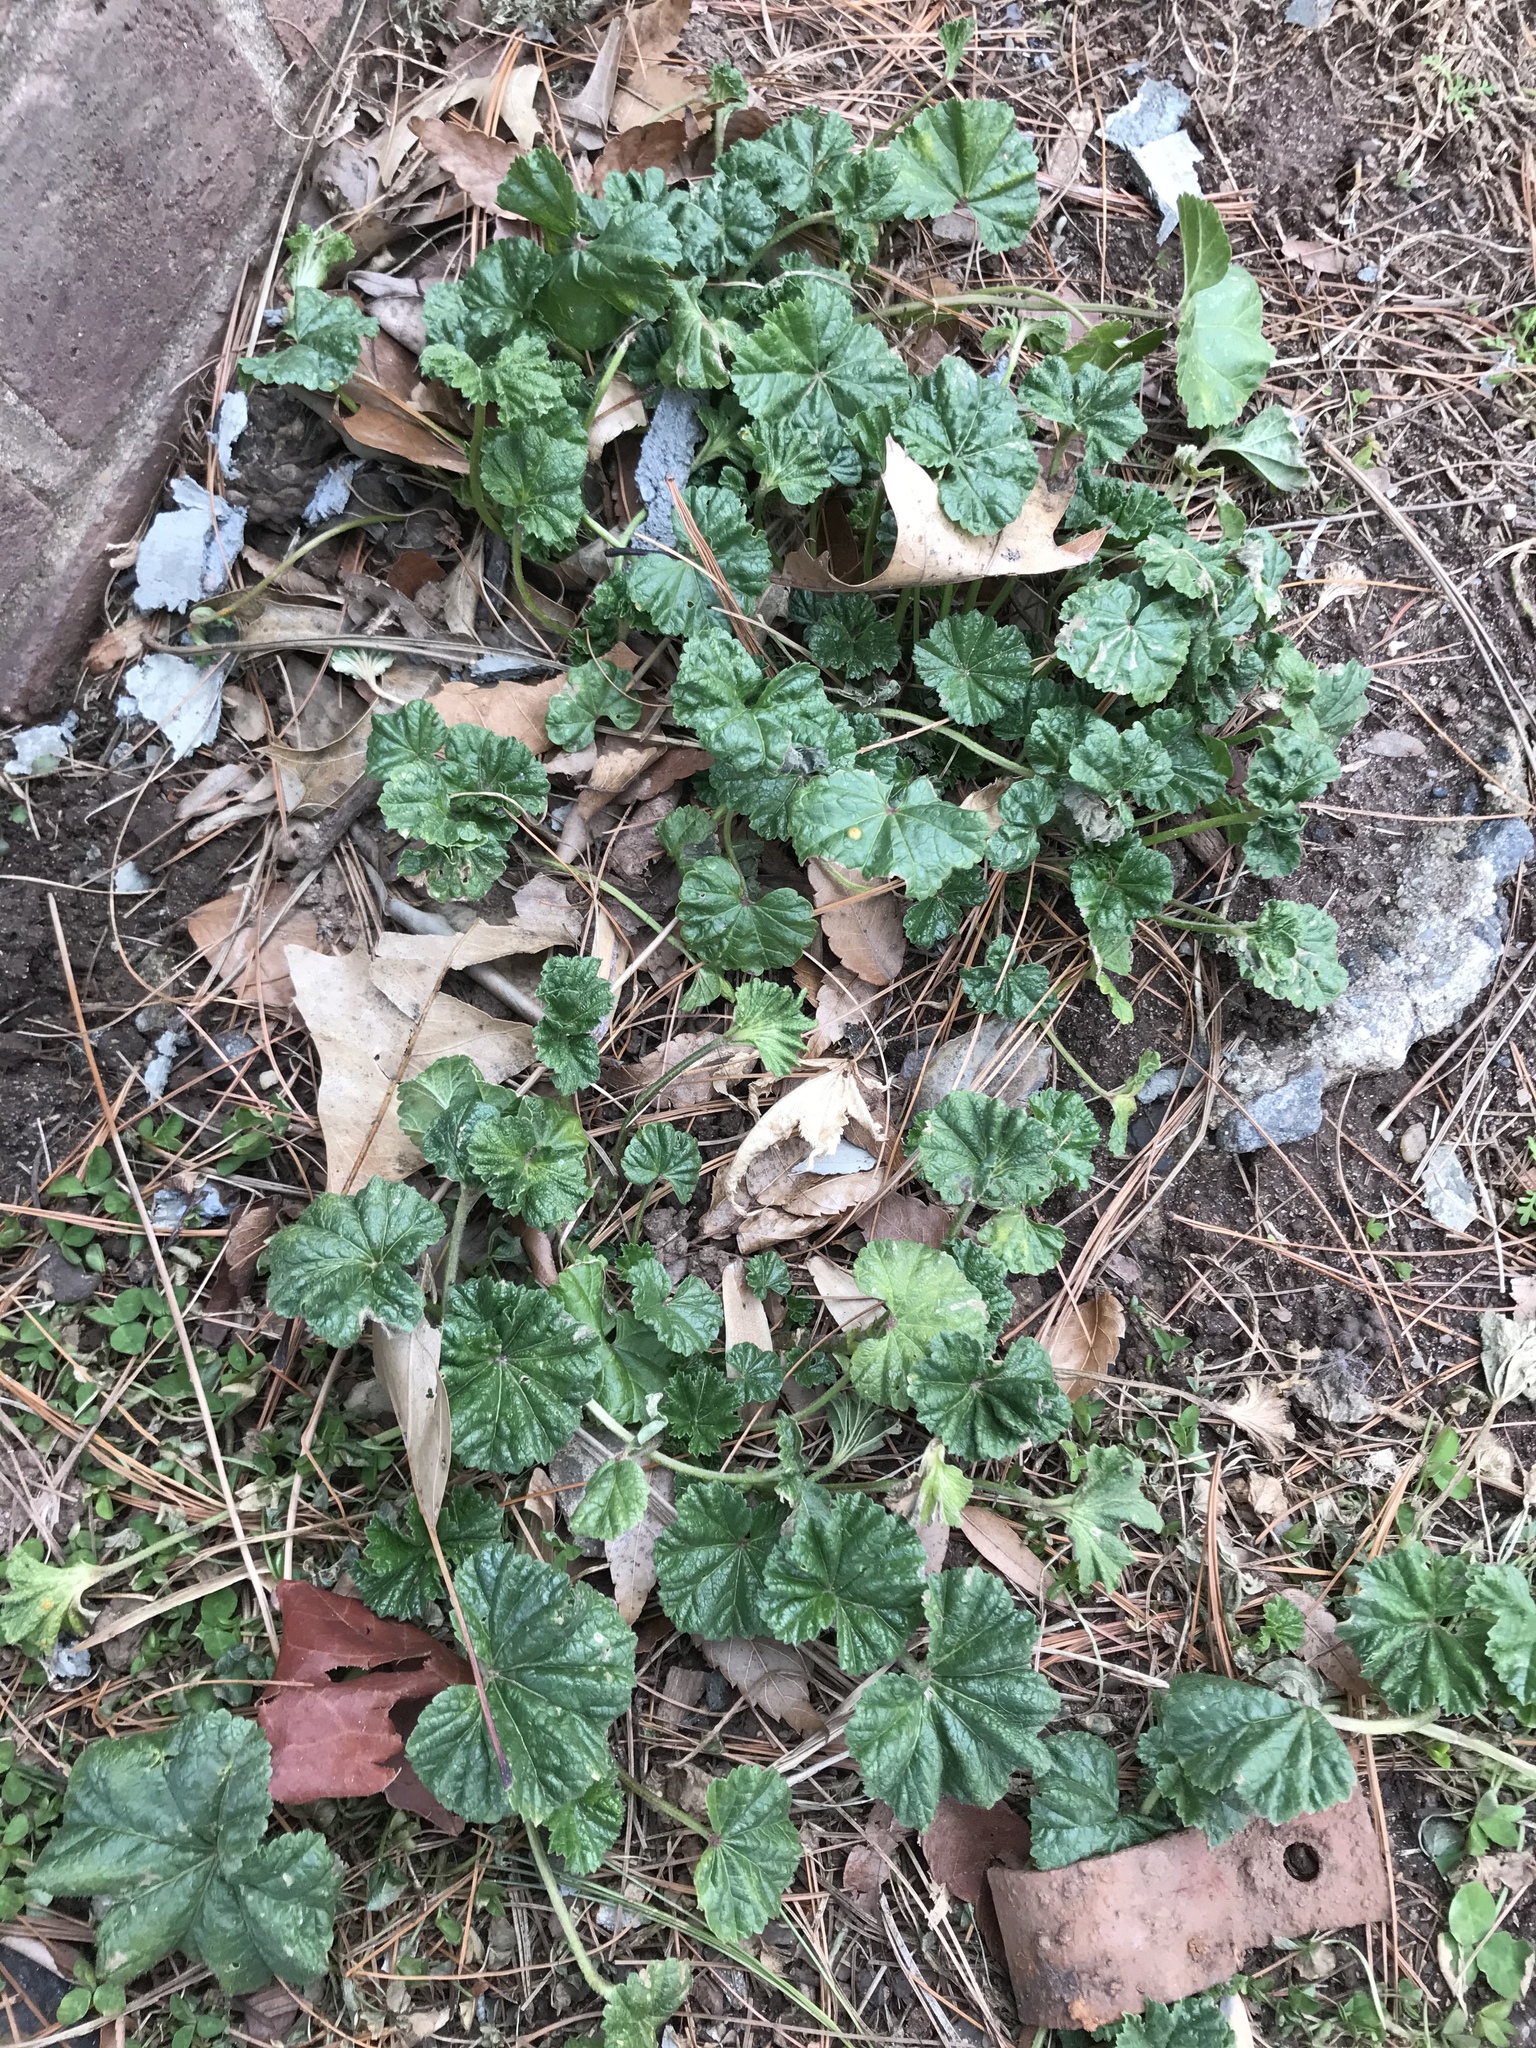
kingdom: Plantae
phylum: Tracheophyta
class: Magnoliopsida
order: Malvales
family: Malvaceae
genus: Malva
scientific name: Malva neglecta
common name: Common mallow
